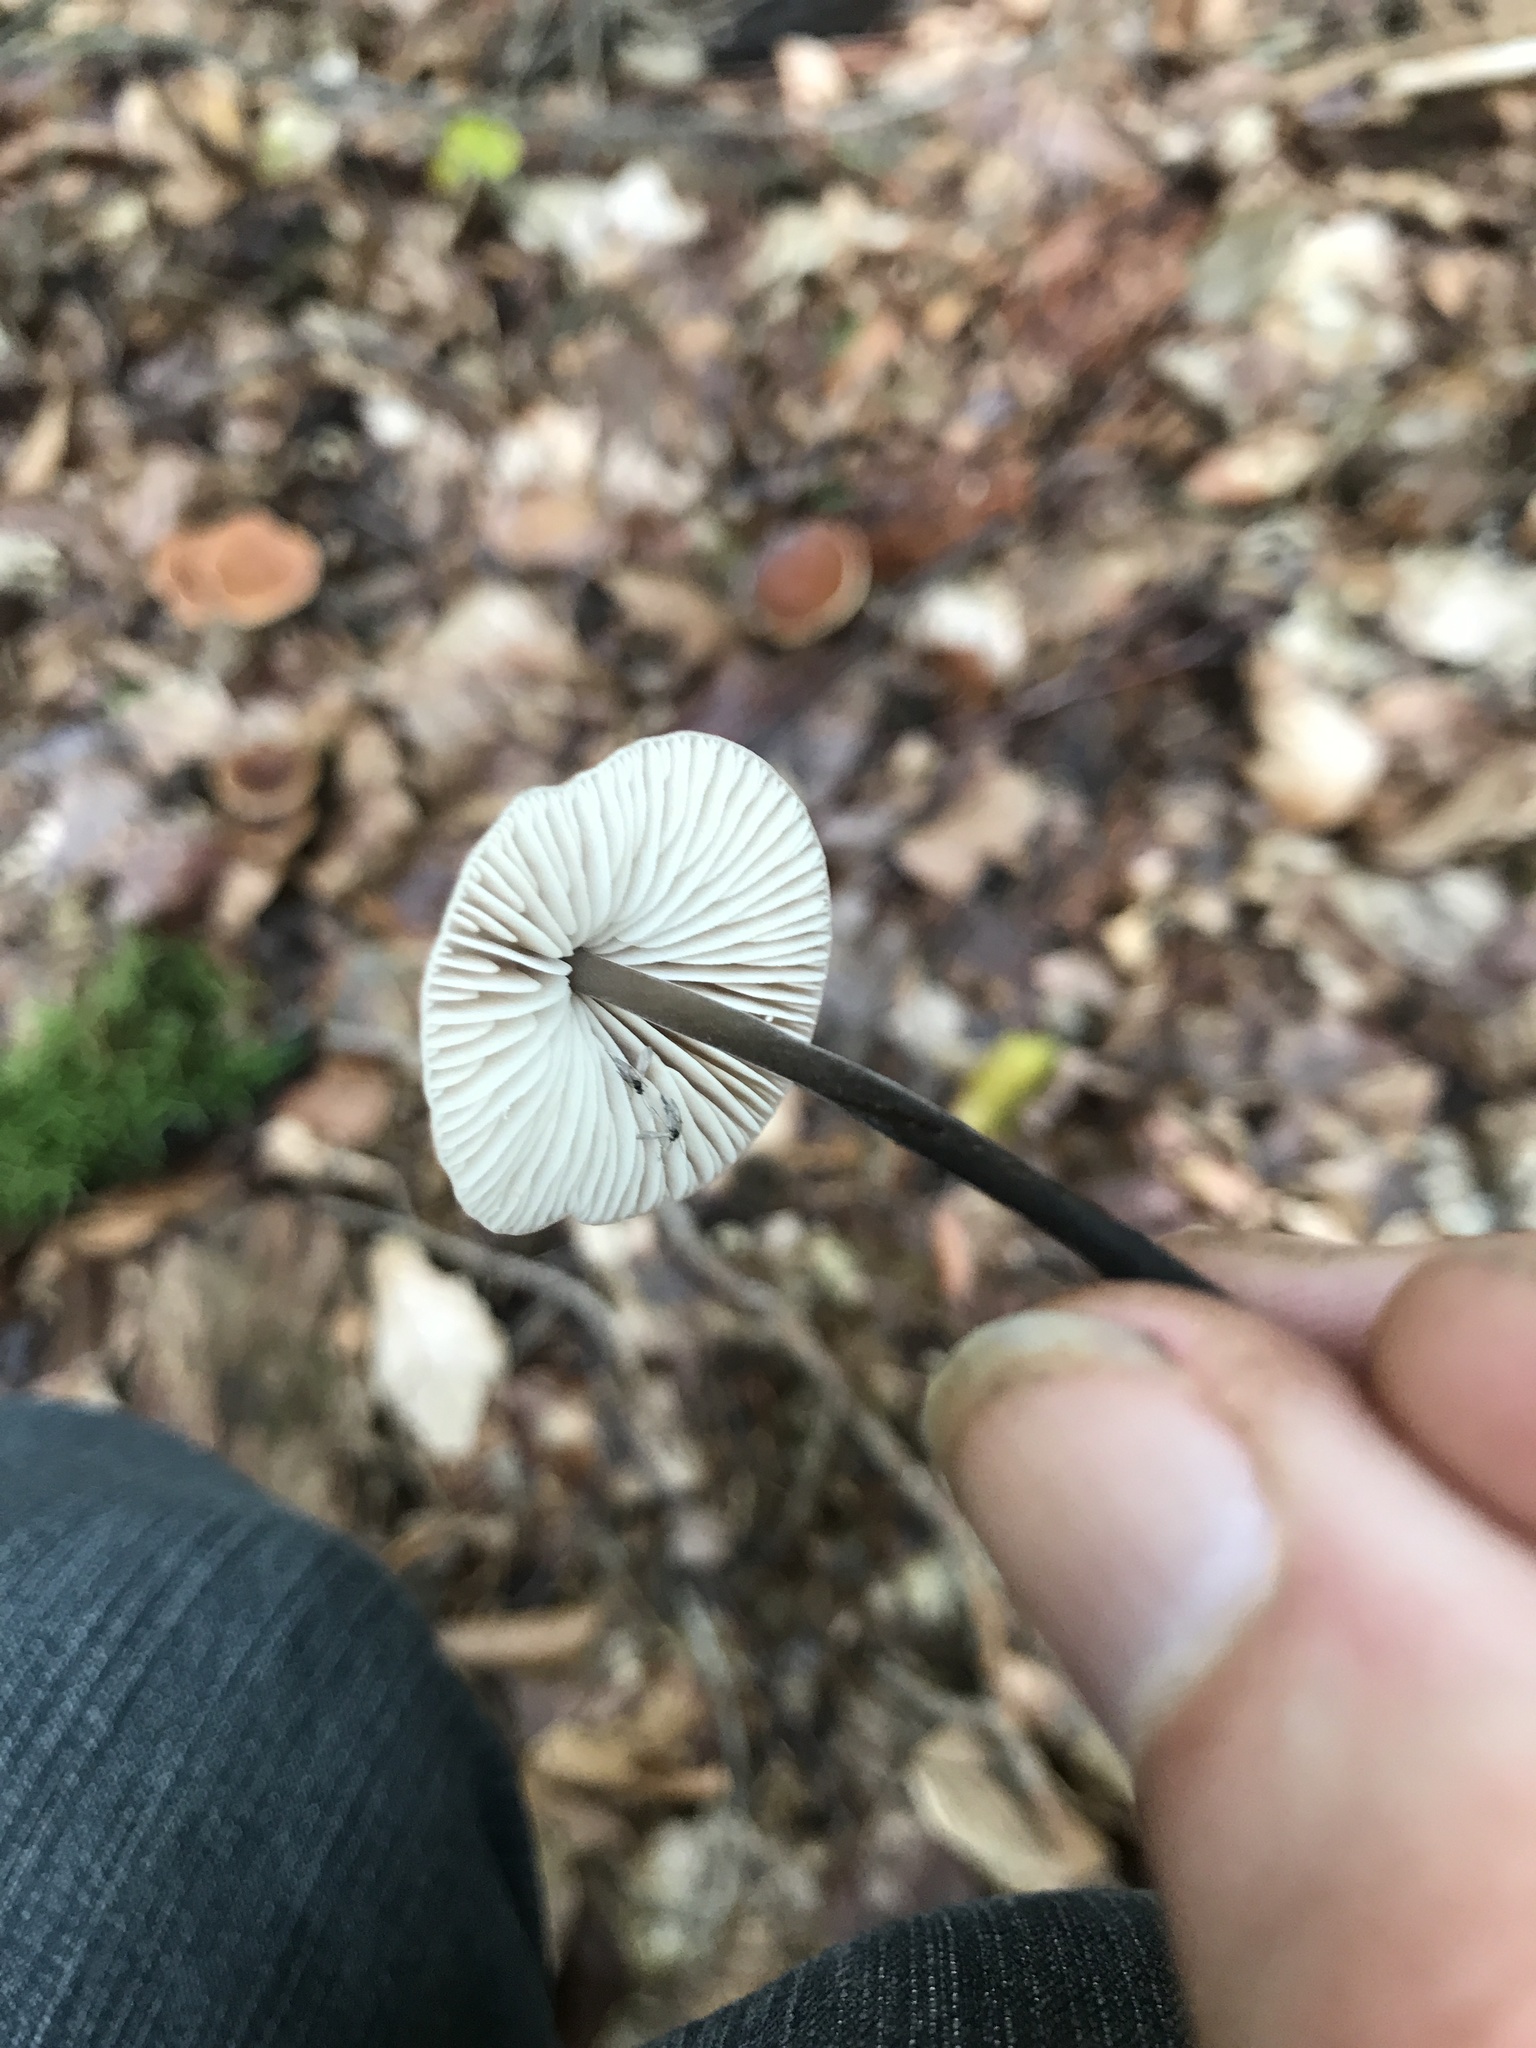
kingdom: Fungi
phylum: Basidiomycota
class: Agaricomycetes
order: Agaricales
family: Omphalotaceae
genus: Mycetinis
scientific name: Mycetinis alliaceus
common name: Garlic parachute
